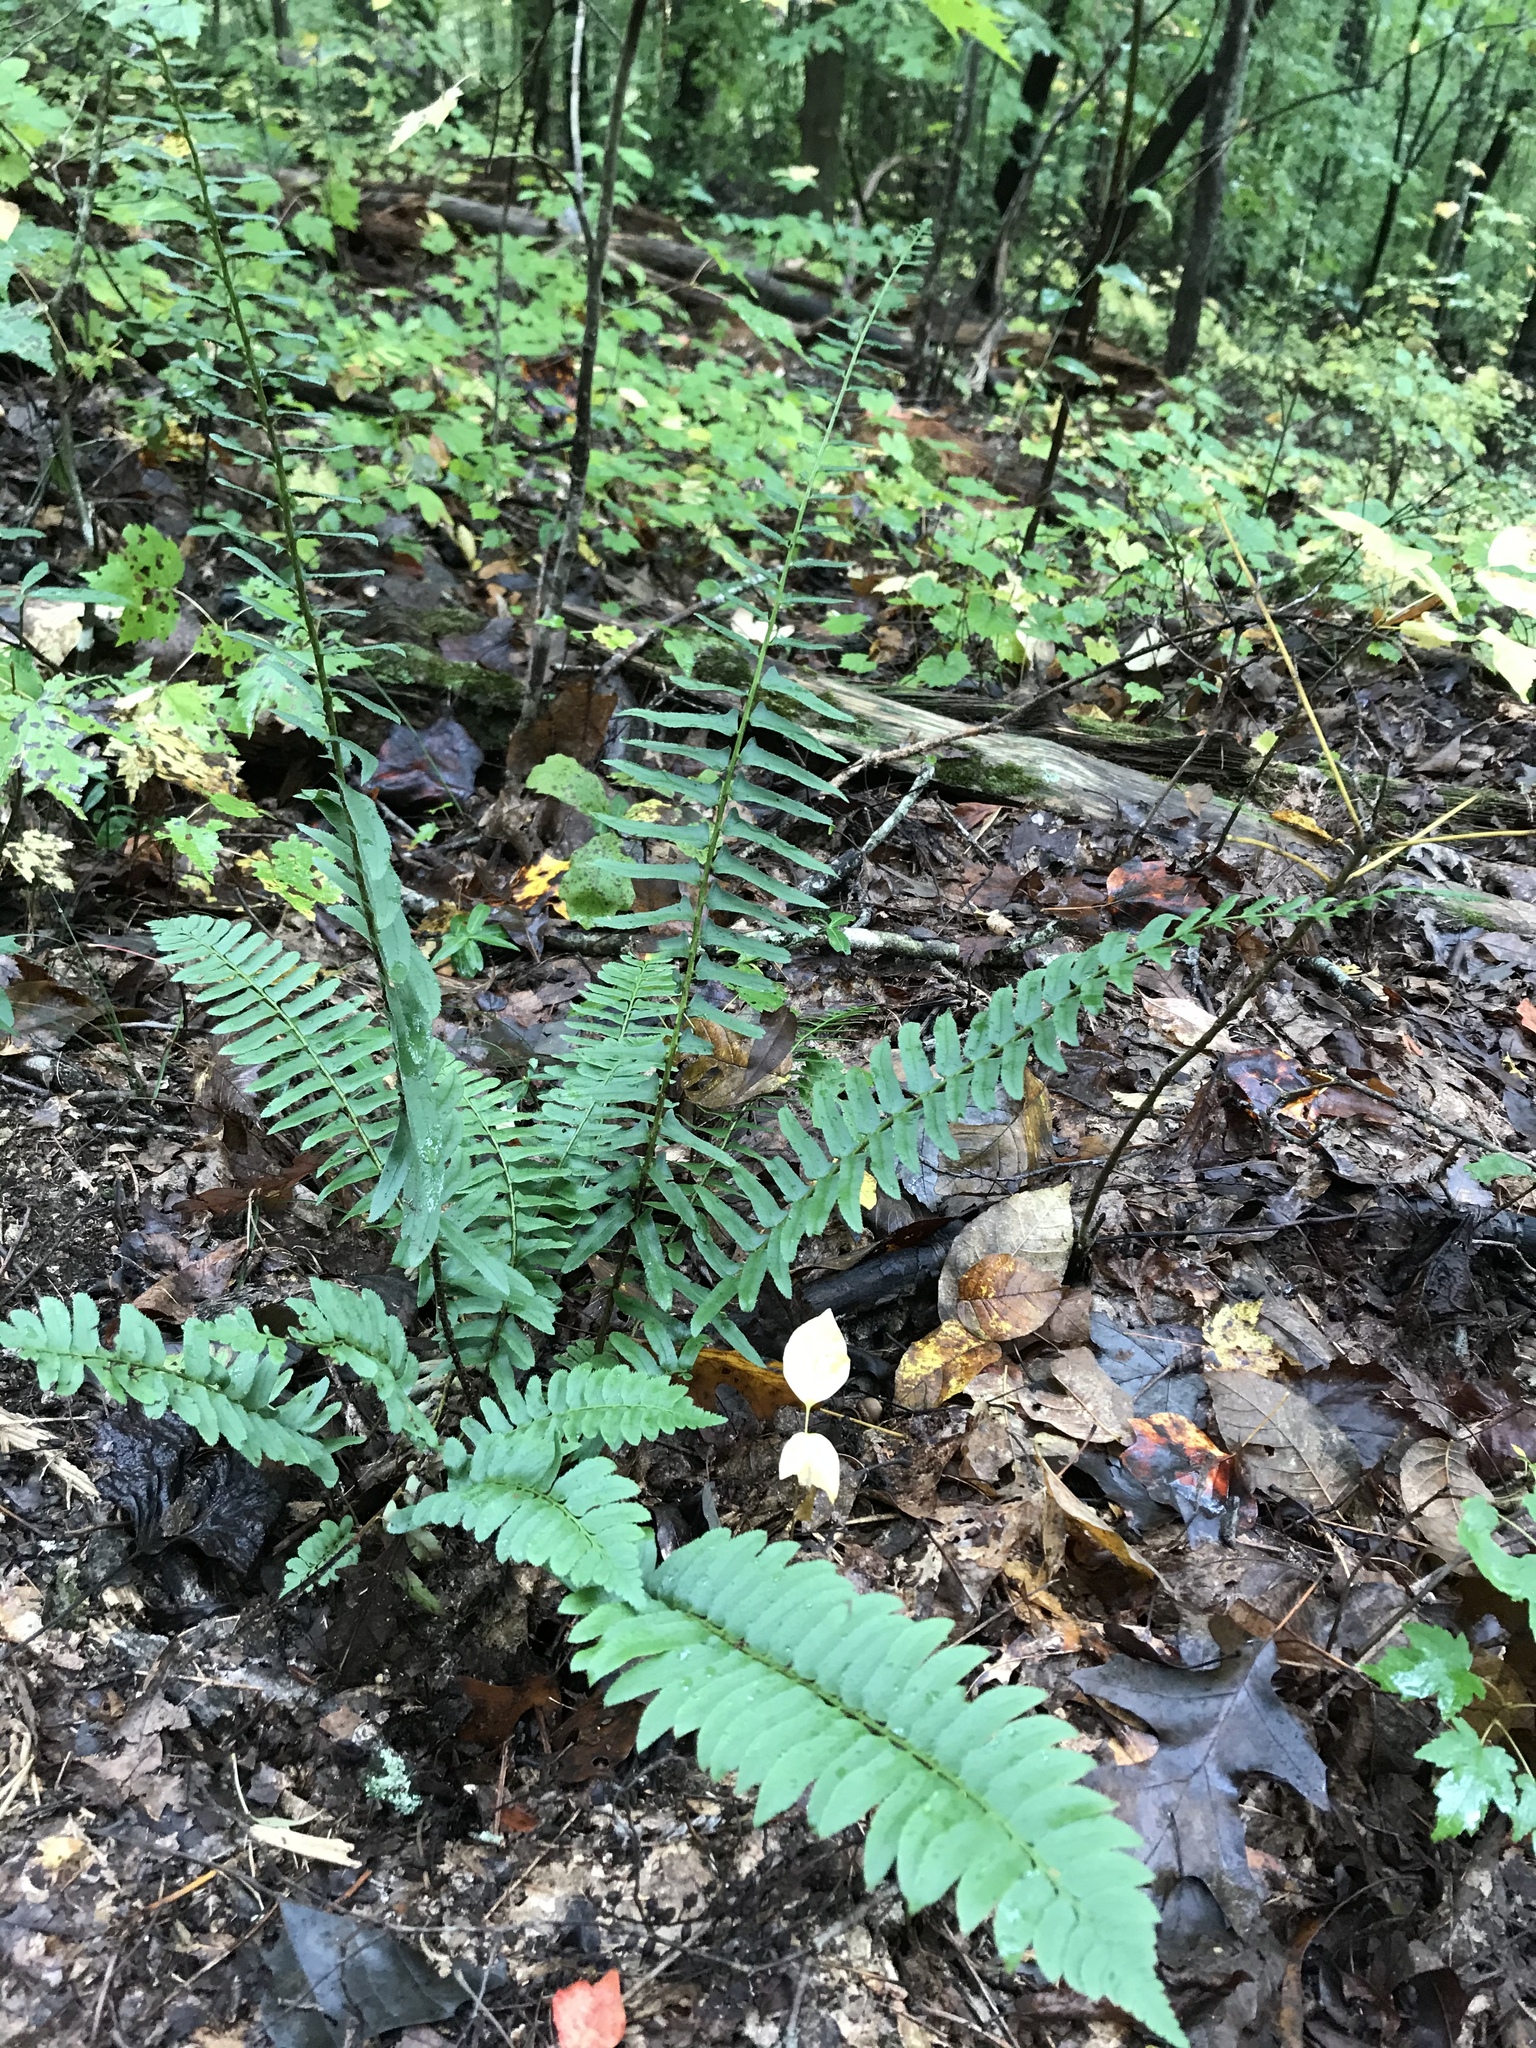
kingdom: Plantae
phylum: Tracheophyta
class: Polypodiopsida
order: Polypodiales
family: Dryopteridaceae
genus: Polystichum
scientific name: Polystichum acrostichoides
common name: Christmas fern
